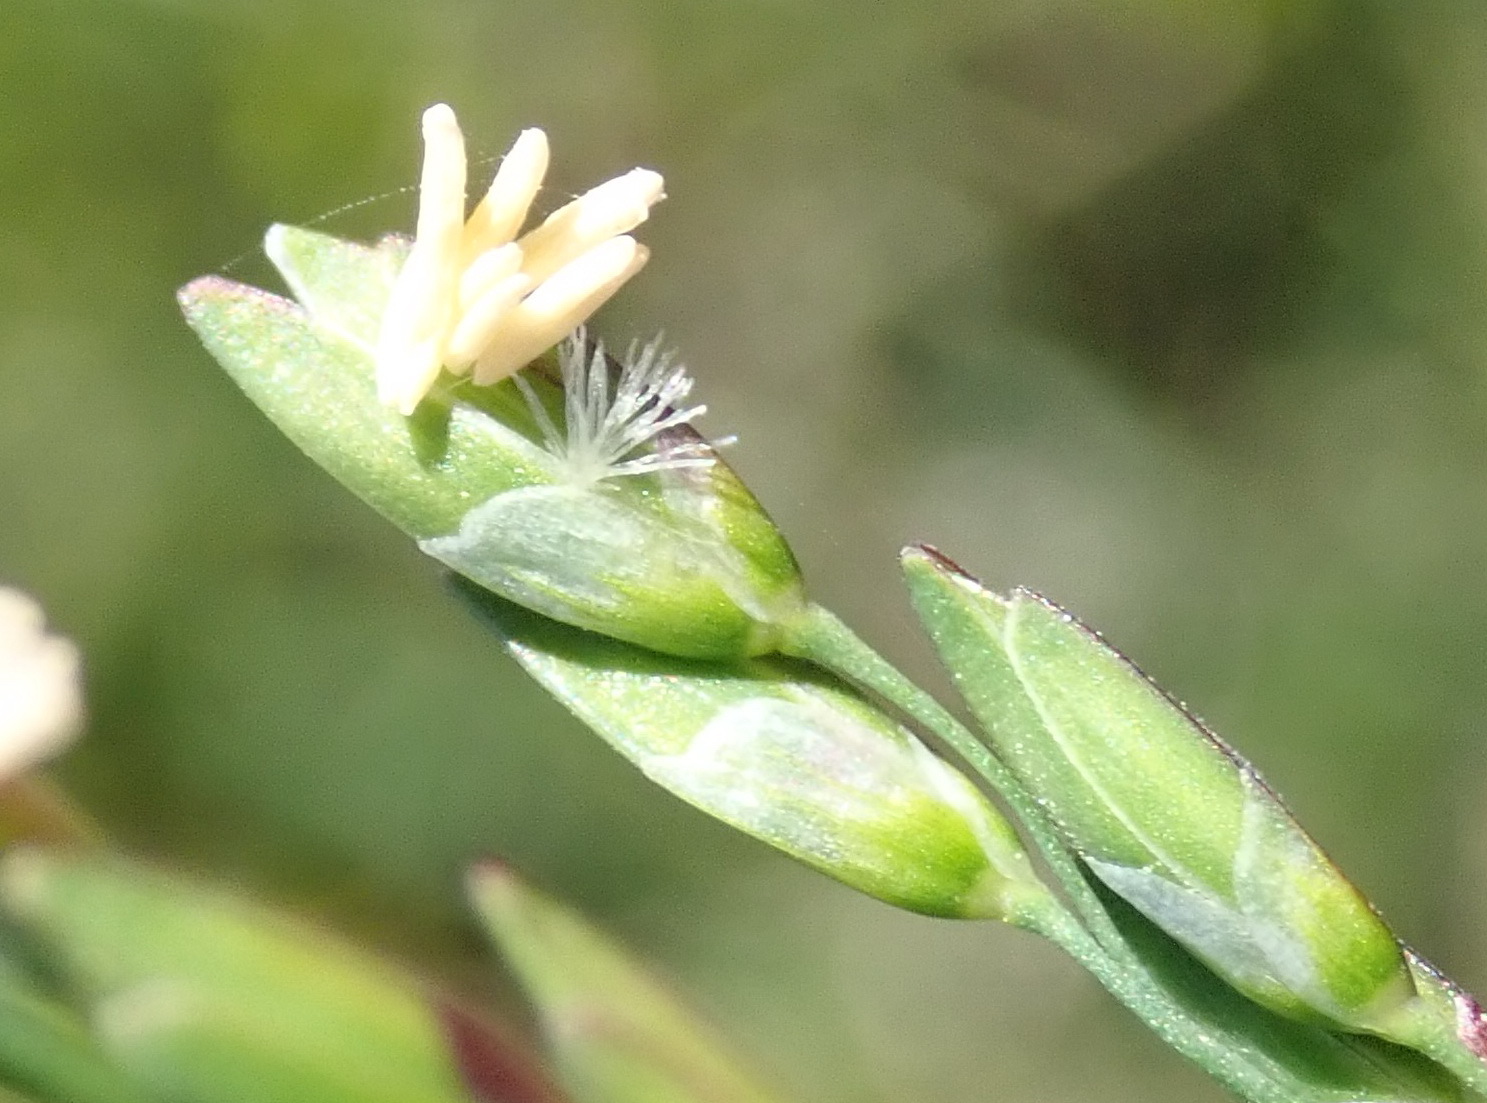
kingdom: Plantae
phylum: Tracheophyta
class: Liliopsida
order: Poales
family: Poaceae
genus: Ehrharta
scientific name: Ehrharta erecta
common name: Panic veldtgrass
